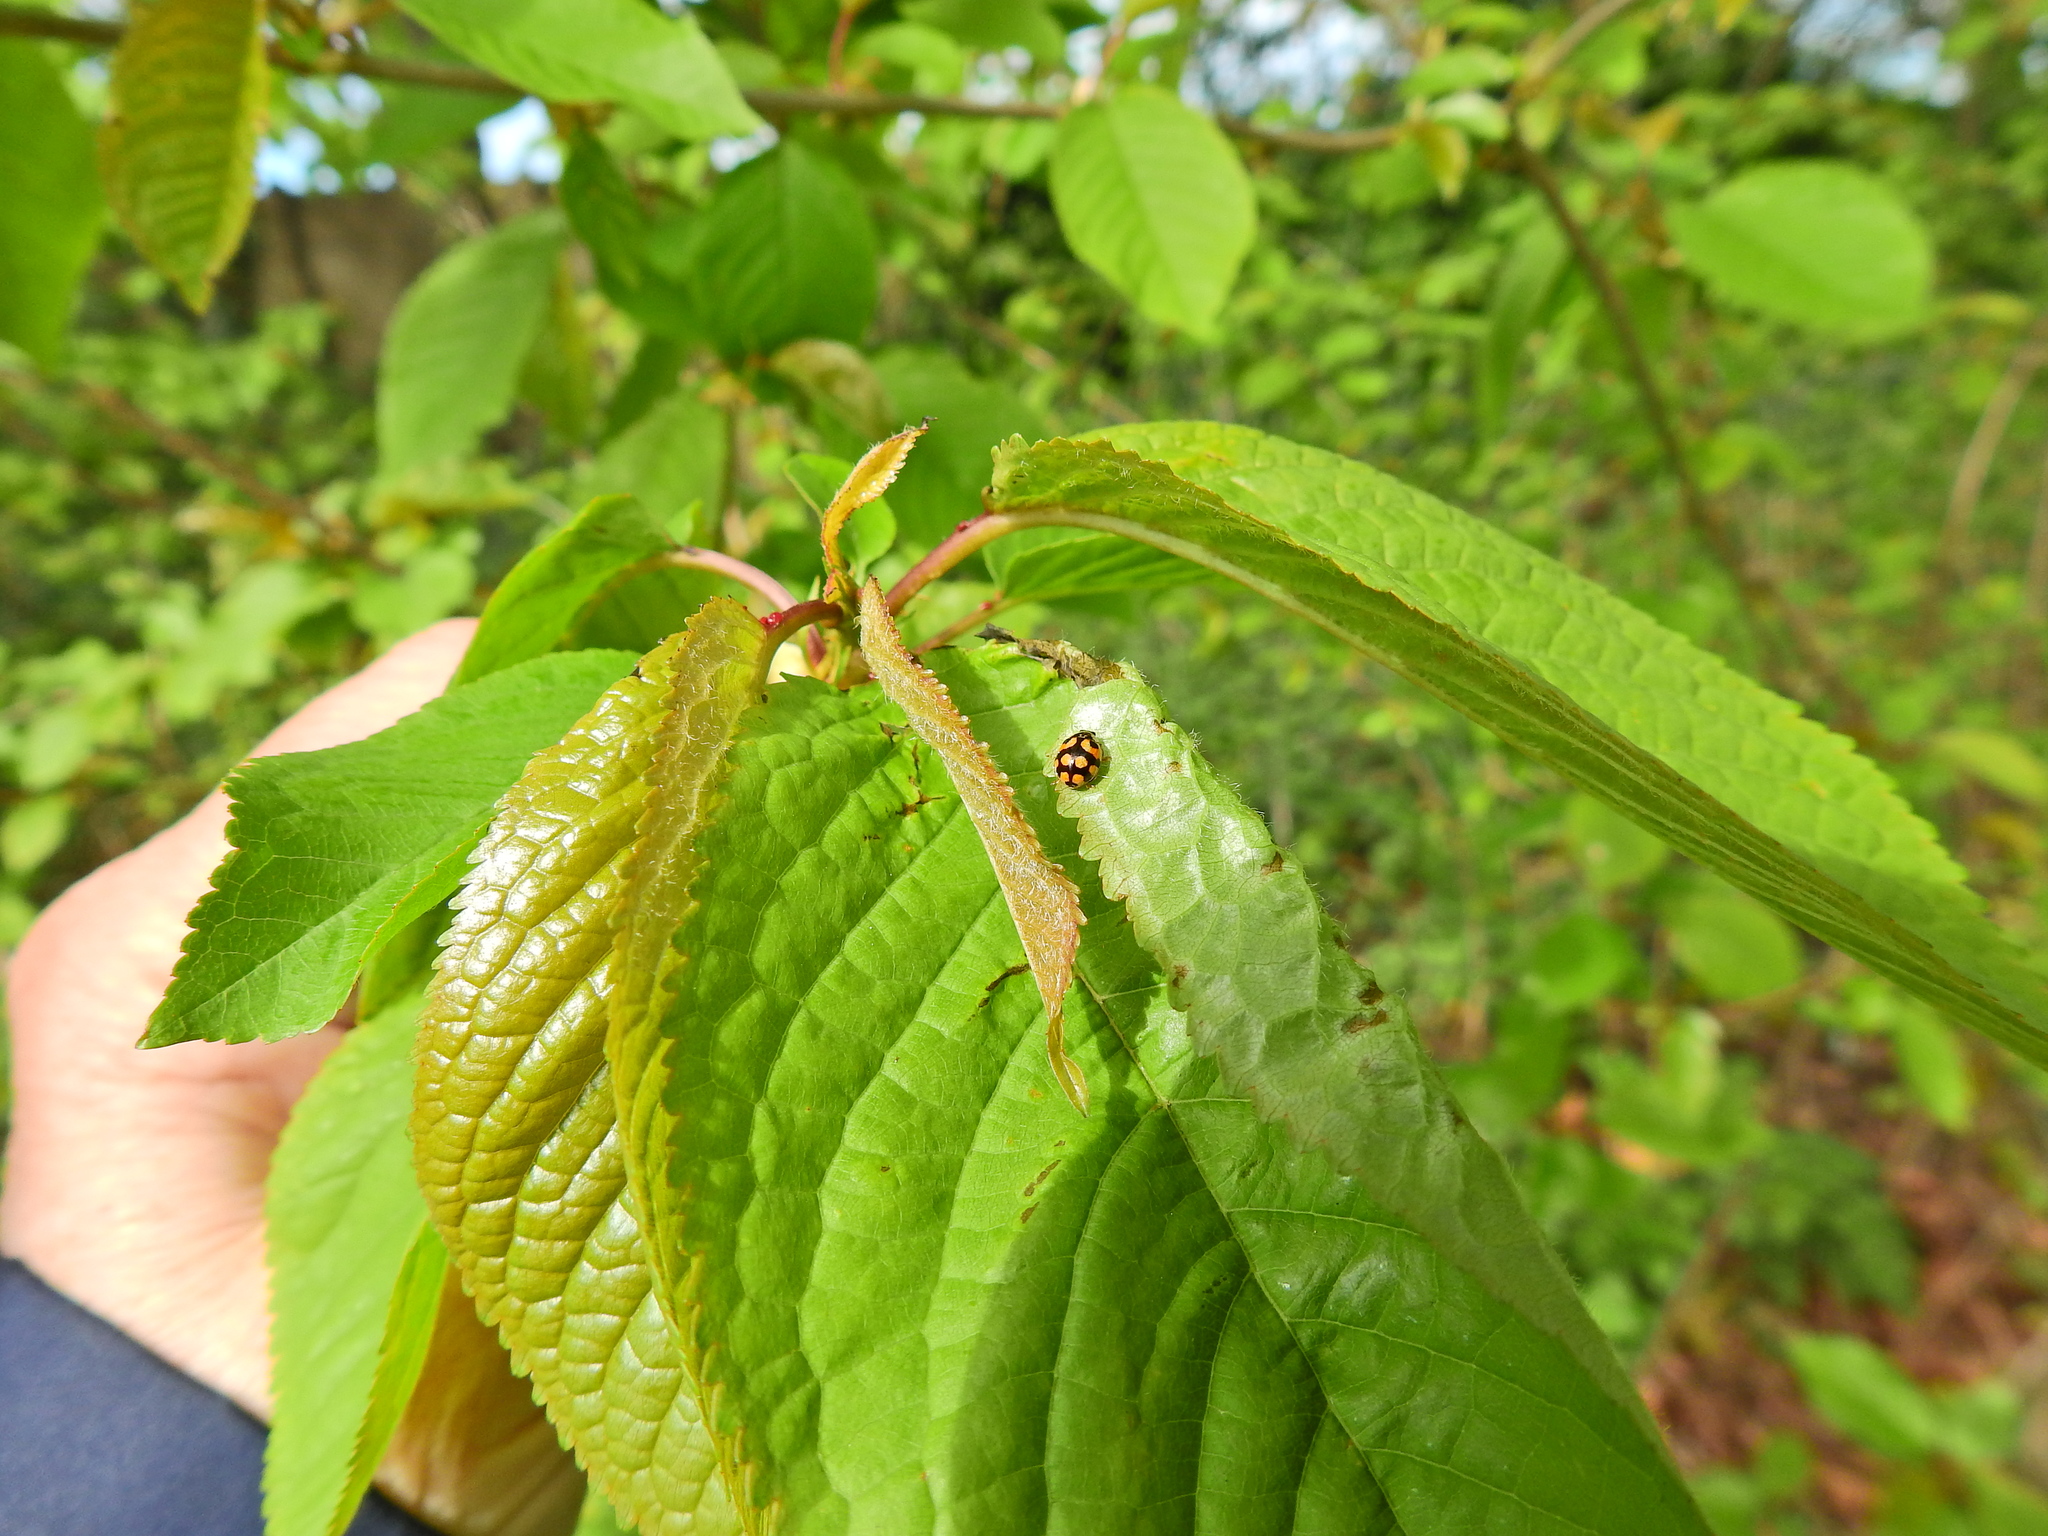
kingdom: Animalia
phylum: Arthropoda
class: Insecta
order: Coleoptera
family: Coccinellidae
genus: Adalia
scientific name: Adalia decempunctata
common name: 10-spot ladybird
